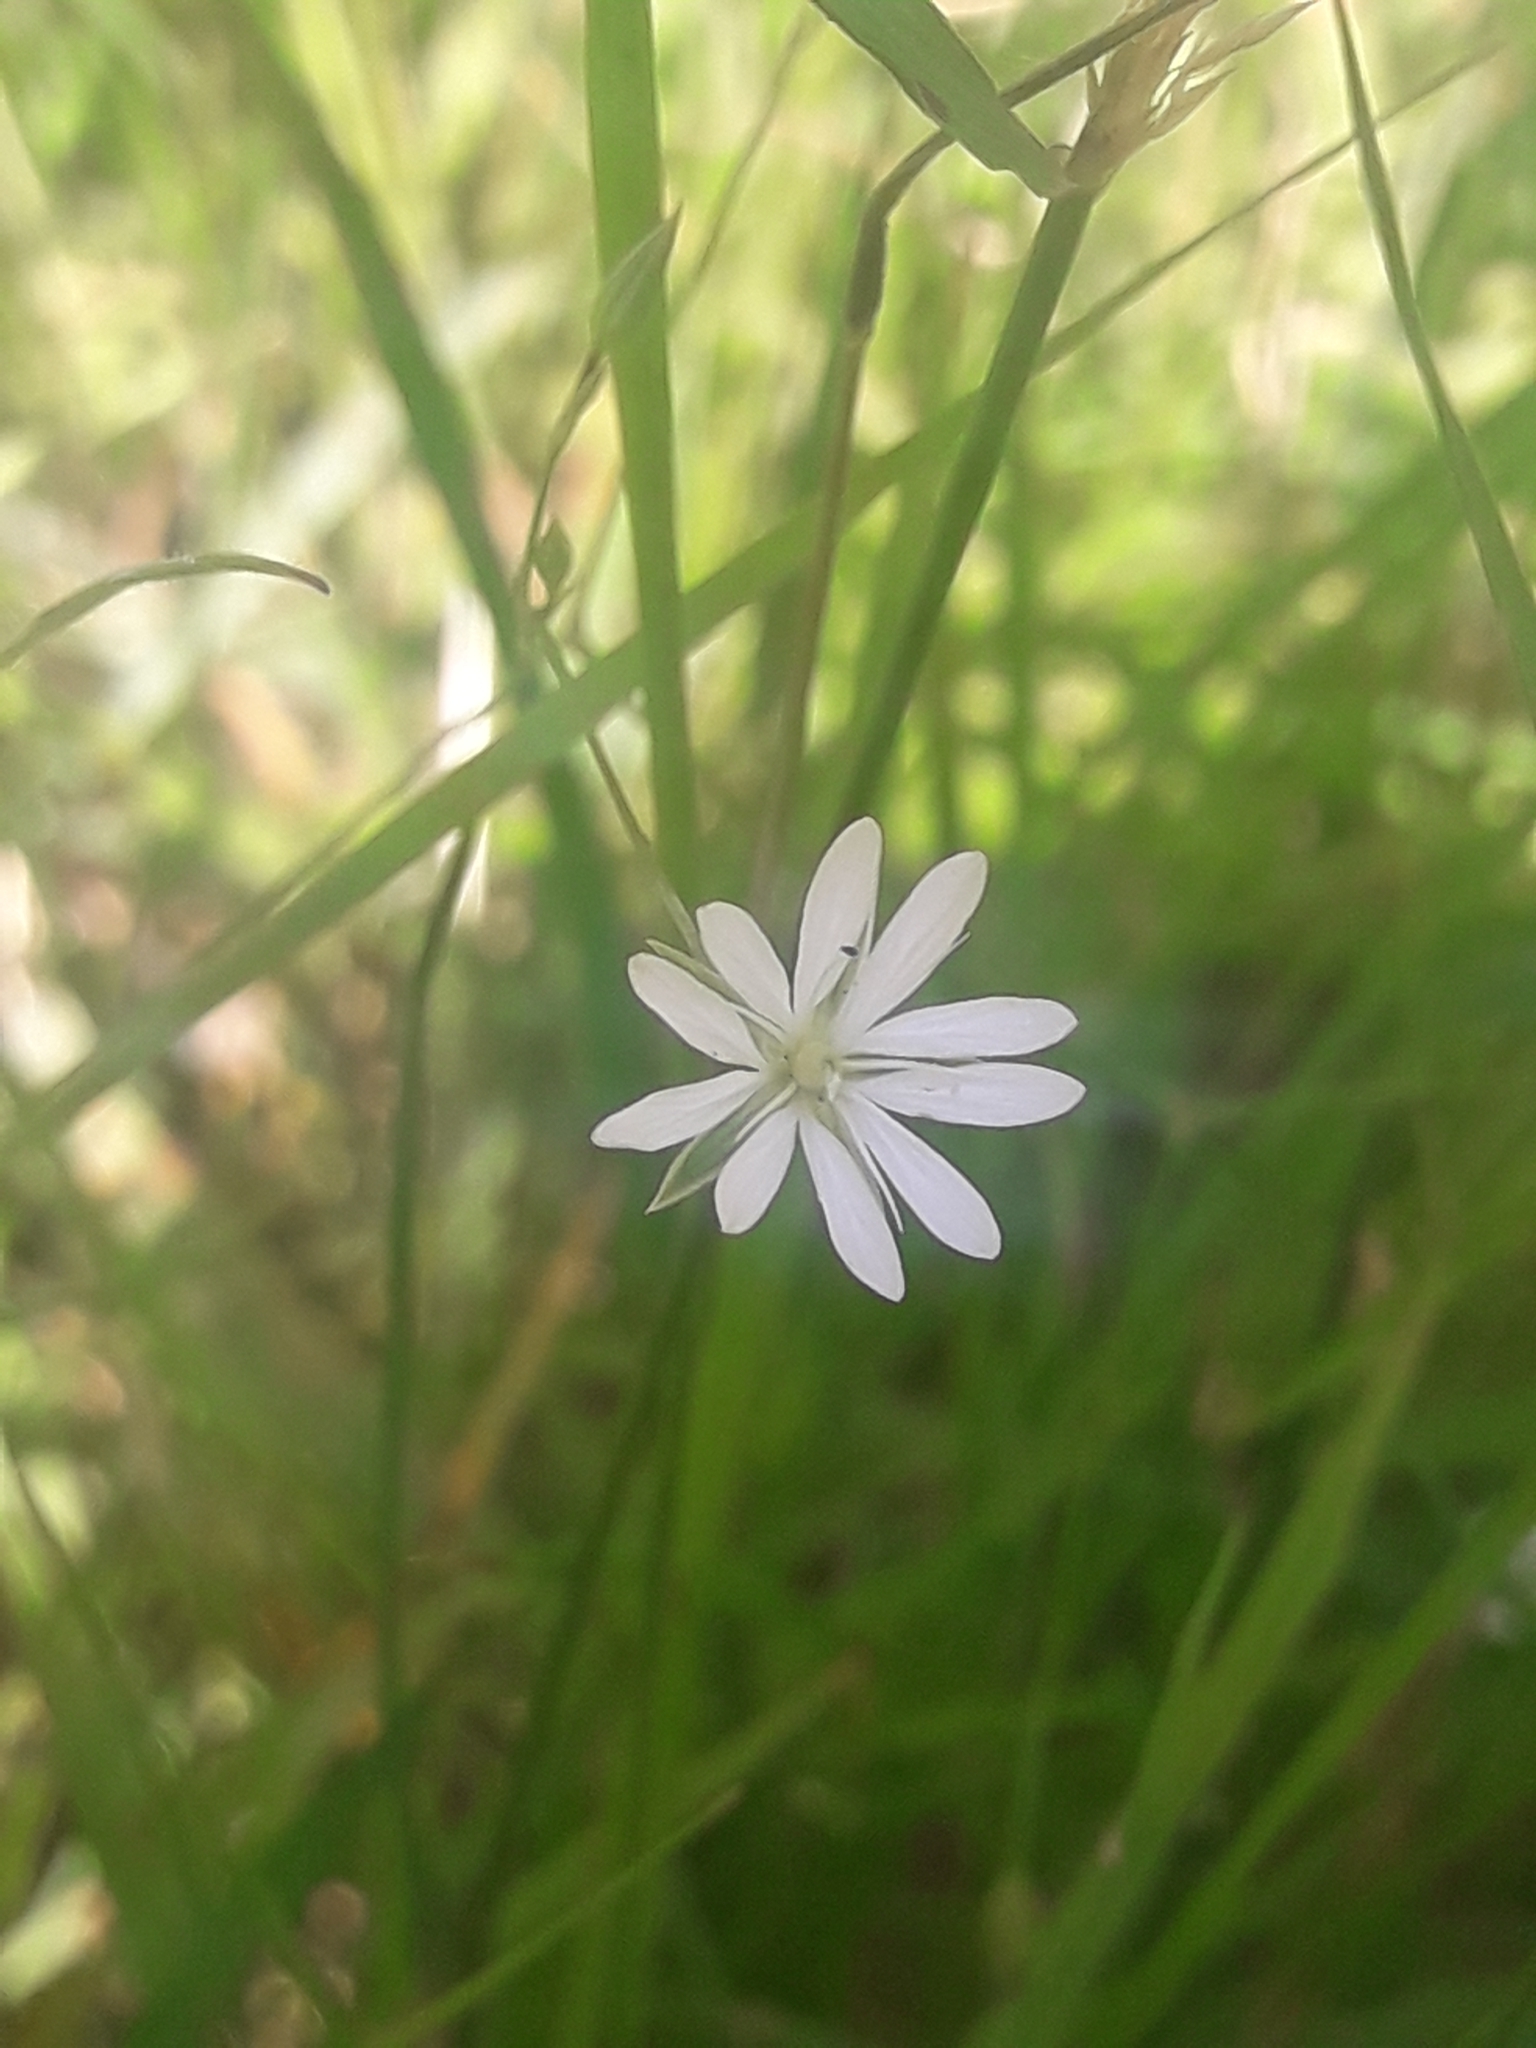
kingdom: Plantae
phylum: Tracheophyta
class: Magnoliopsida
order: Caryophyllales
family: Caryophyllaceae
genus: Stellaria
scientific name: Stellaria graminea
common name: Grass-like starwort
